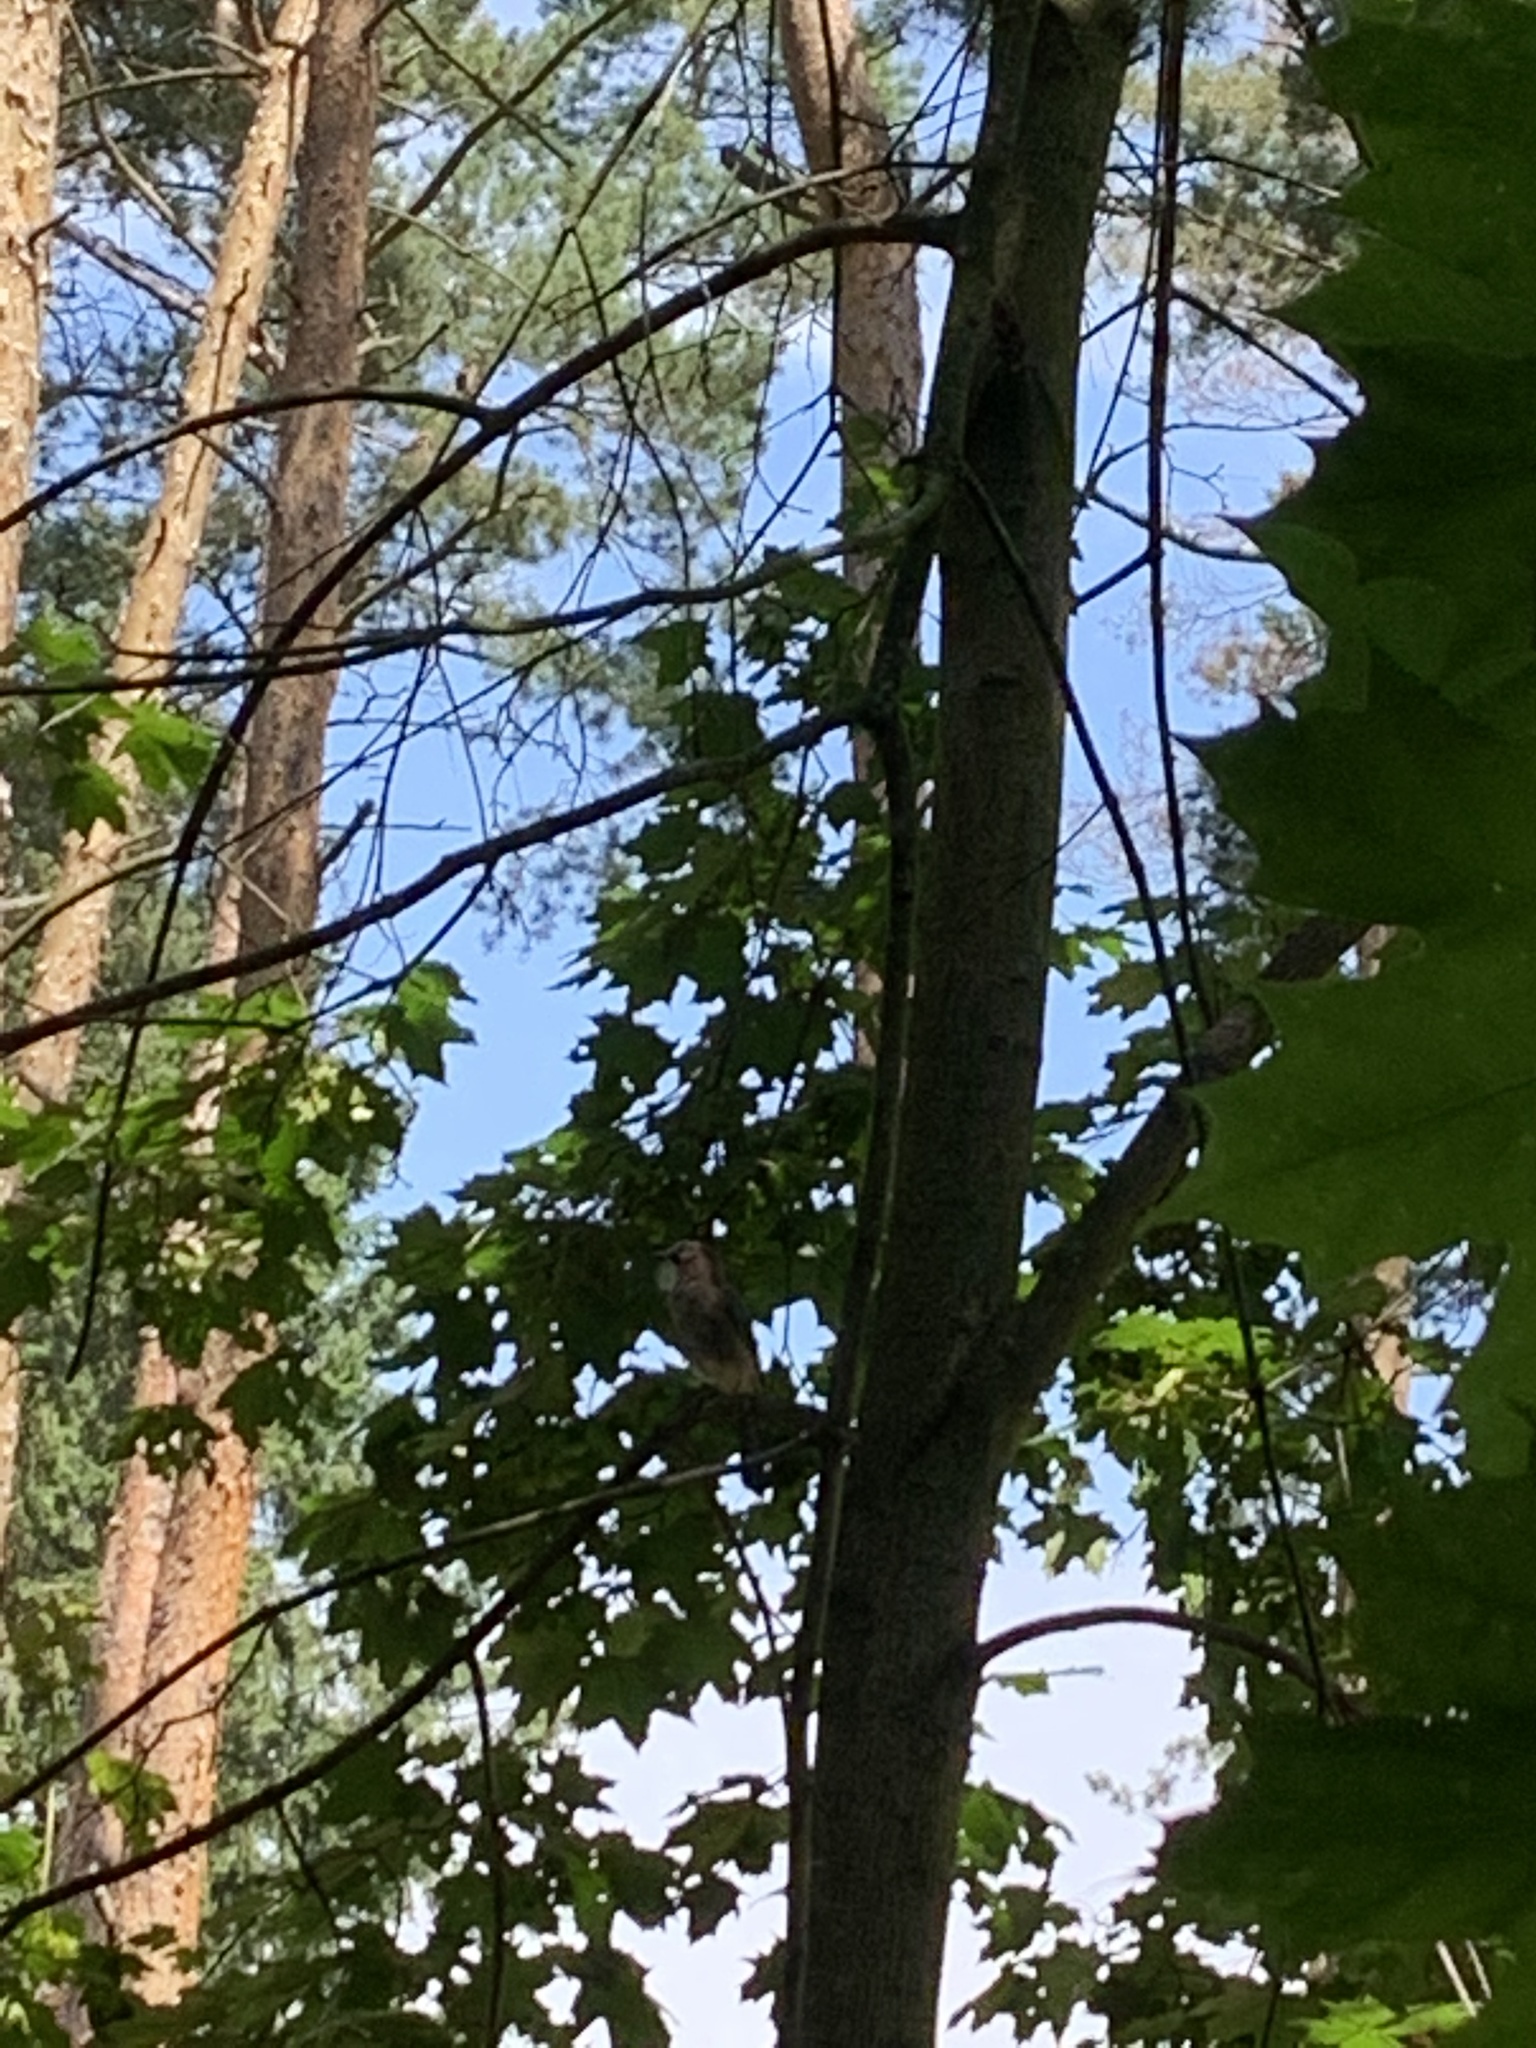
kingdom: Animalia
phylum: Chordata
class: Aves
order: Passeriformes
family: Corvidae
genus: Garrulus
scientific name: Garrulus glandarius
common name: Eurasian jay
